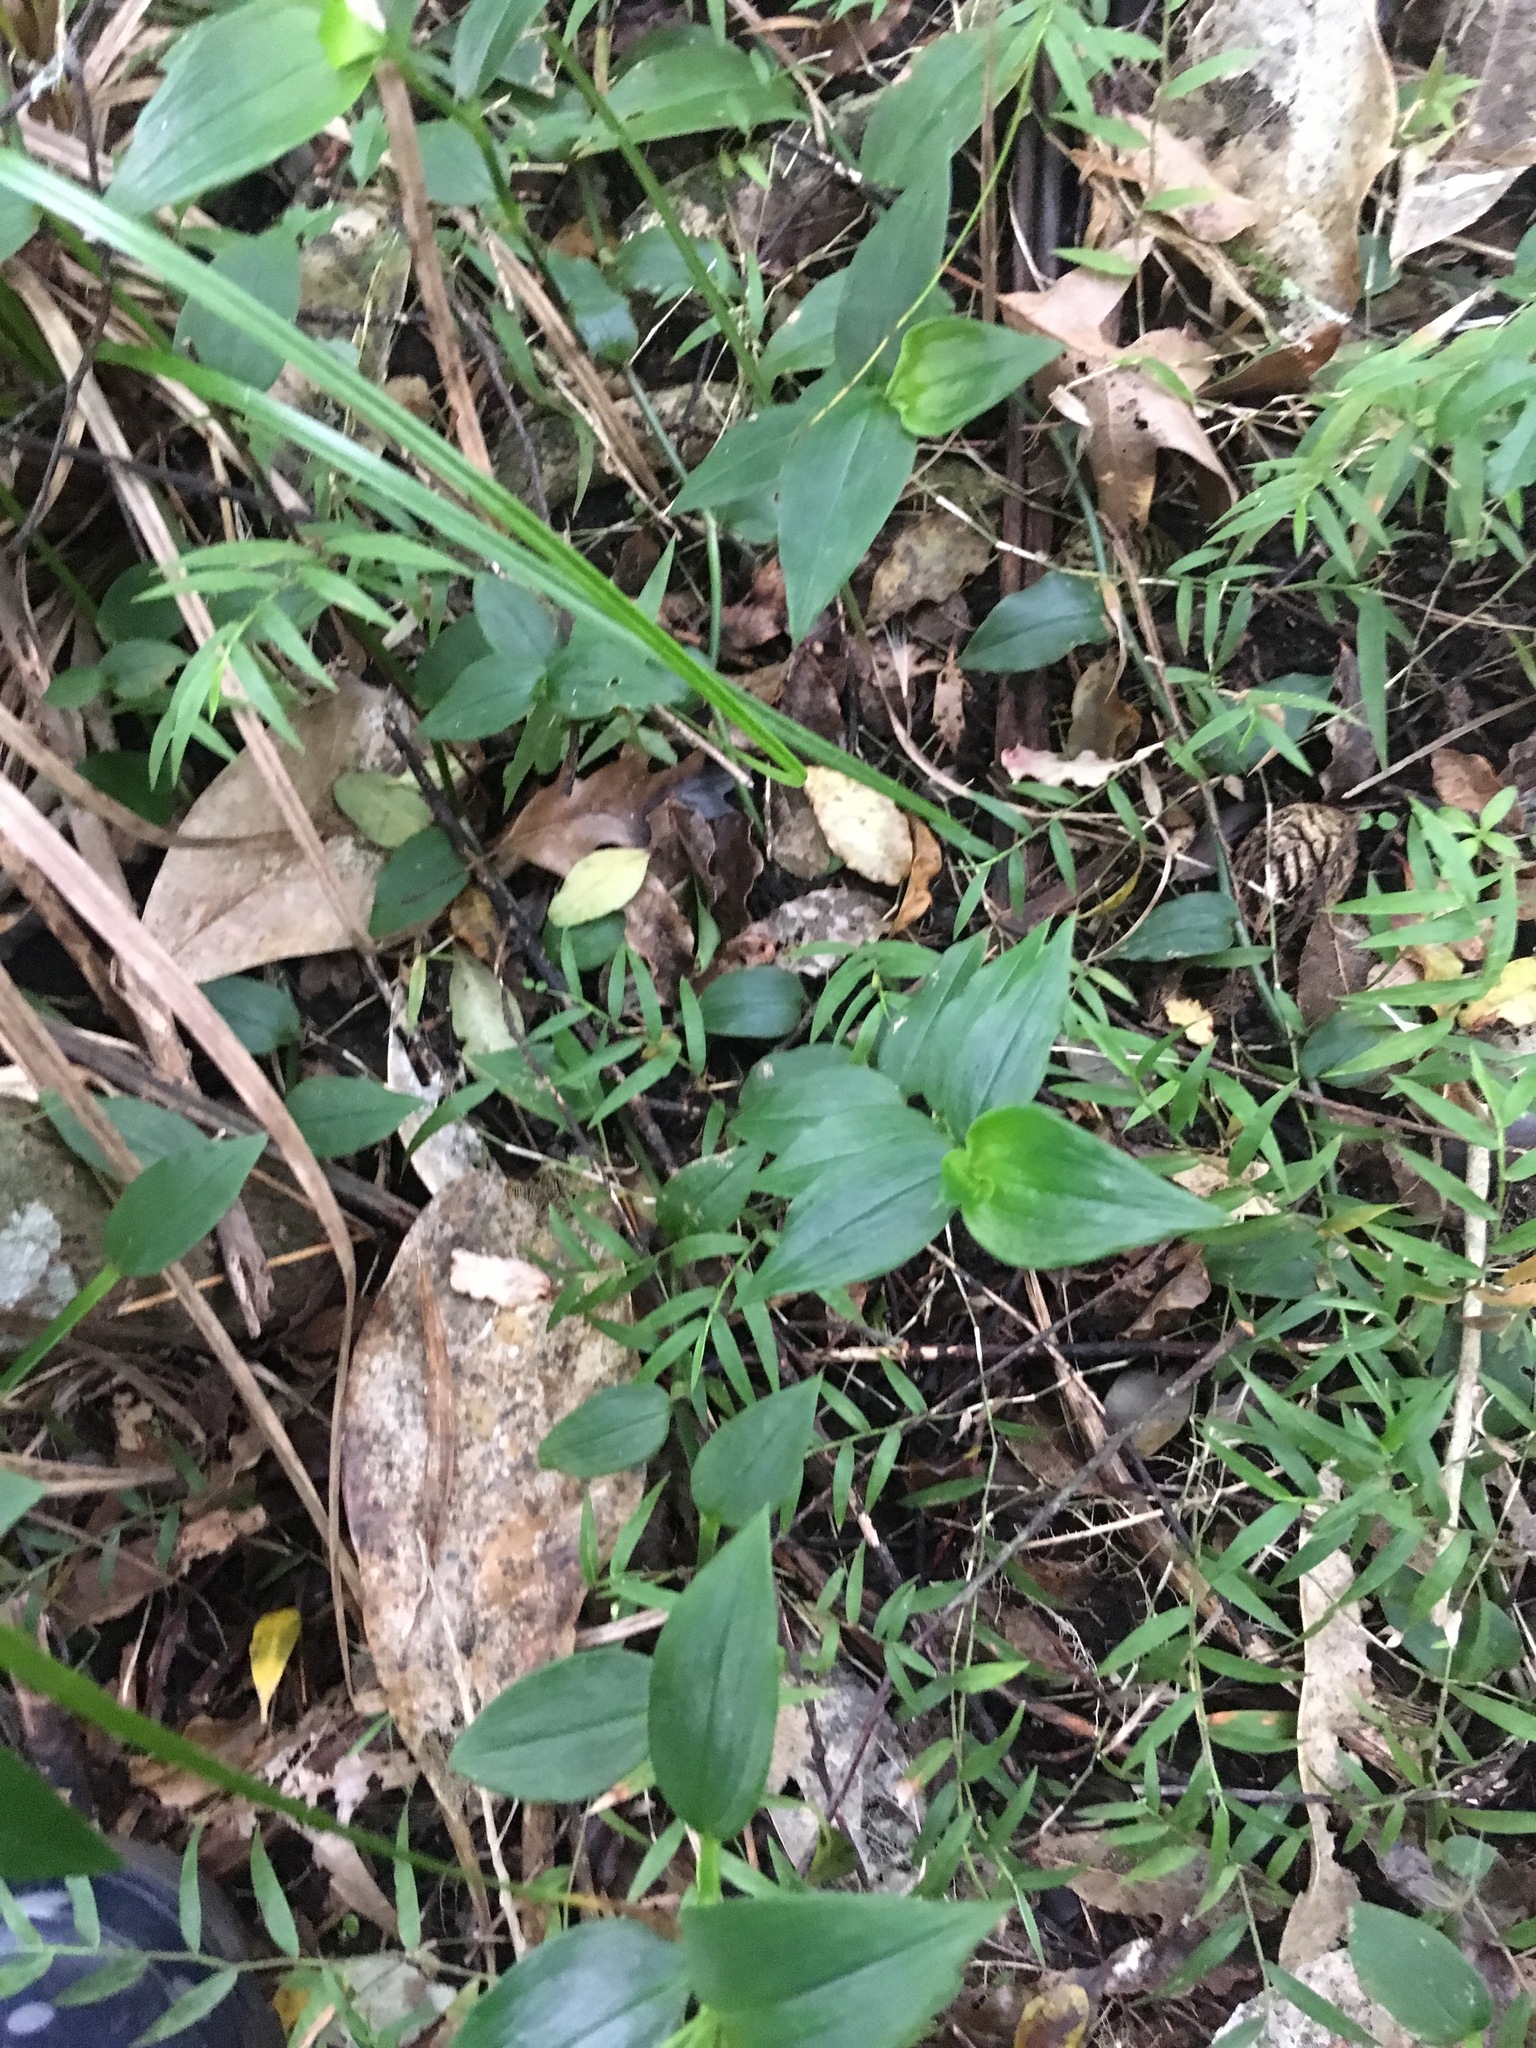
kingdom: Plantae
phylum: Tracheophyta
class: Liliopsida
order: Commelinales
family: Commelinaceae
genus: Tradescantia
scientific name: Tradescantia fluminensis
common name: Wandering-jew
